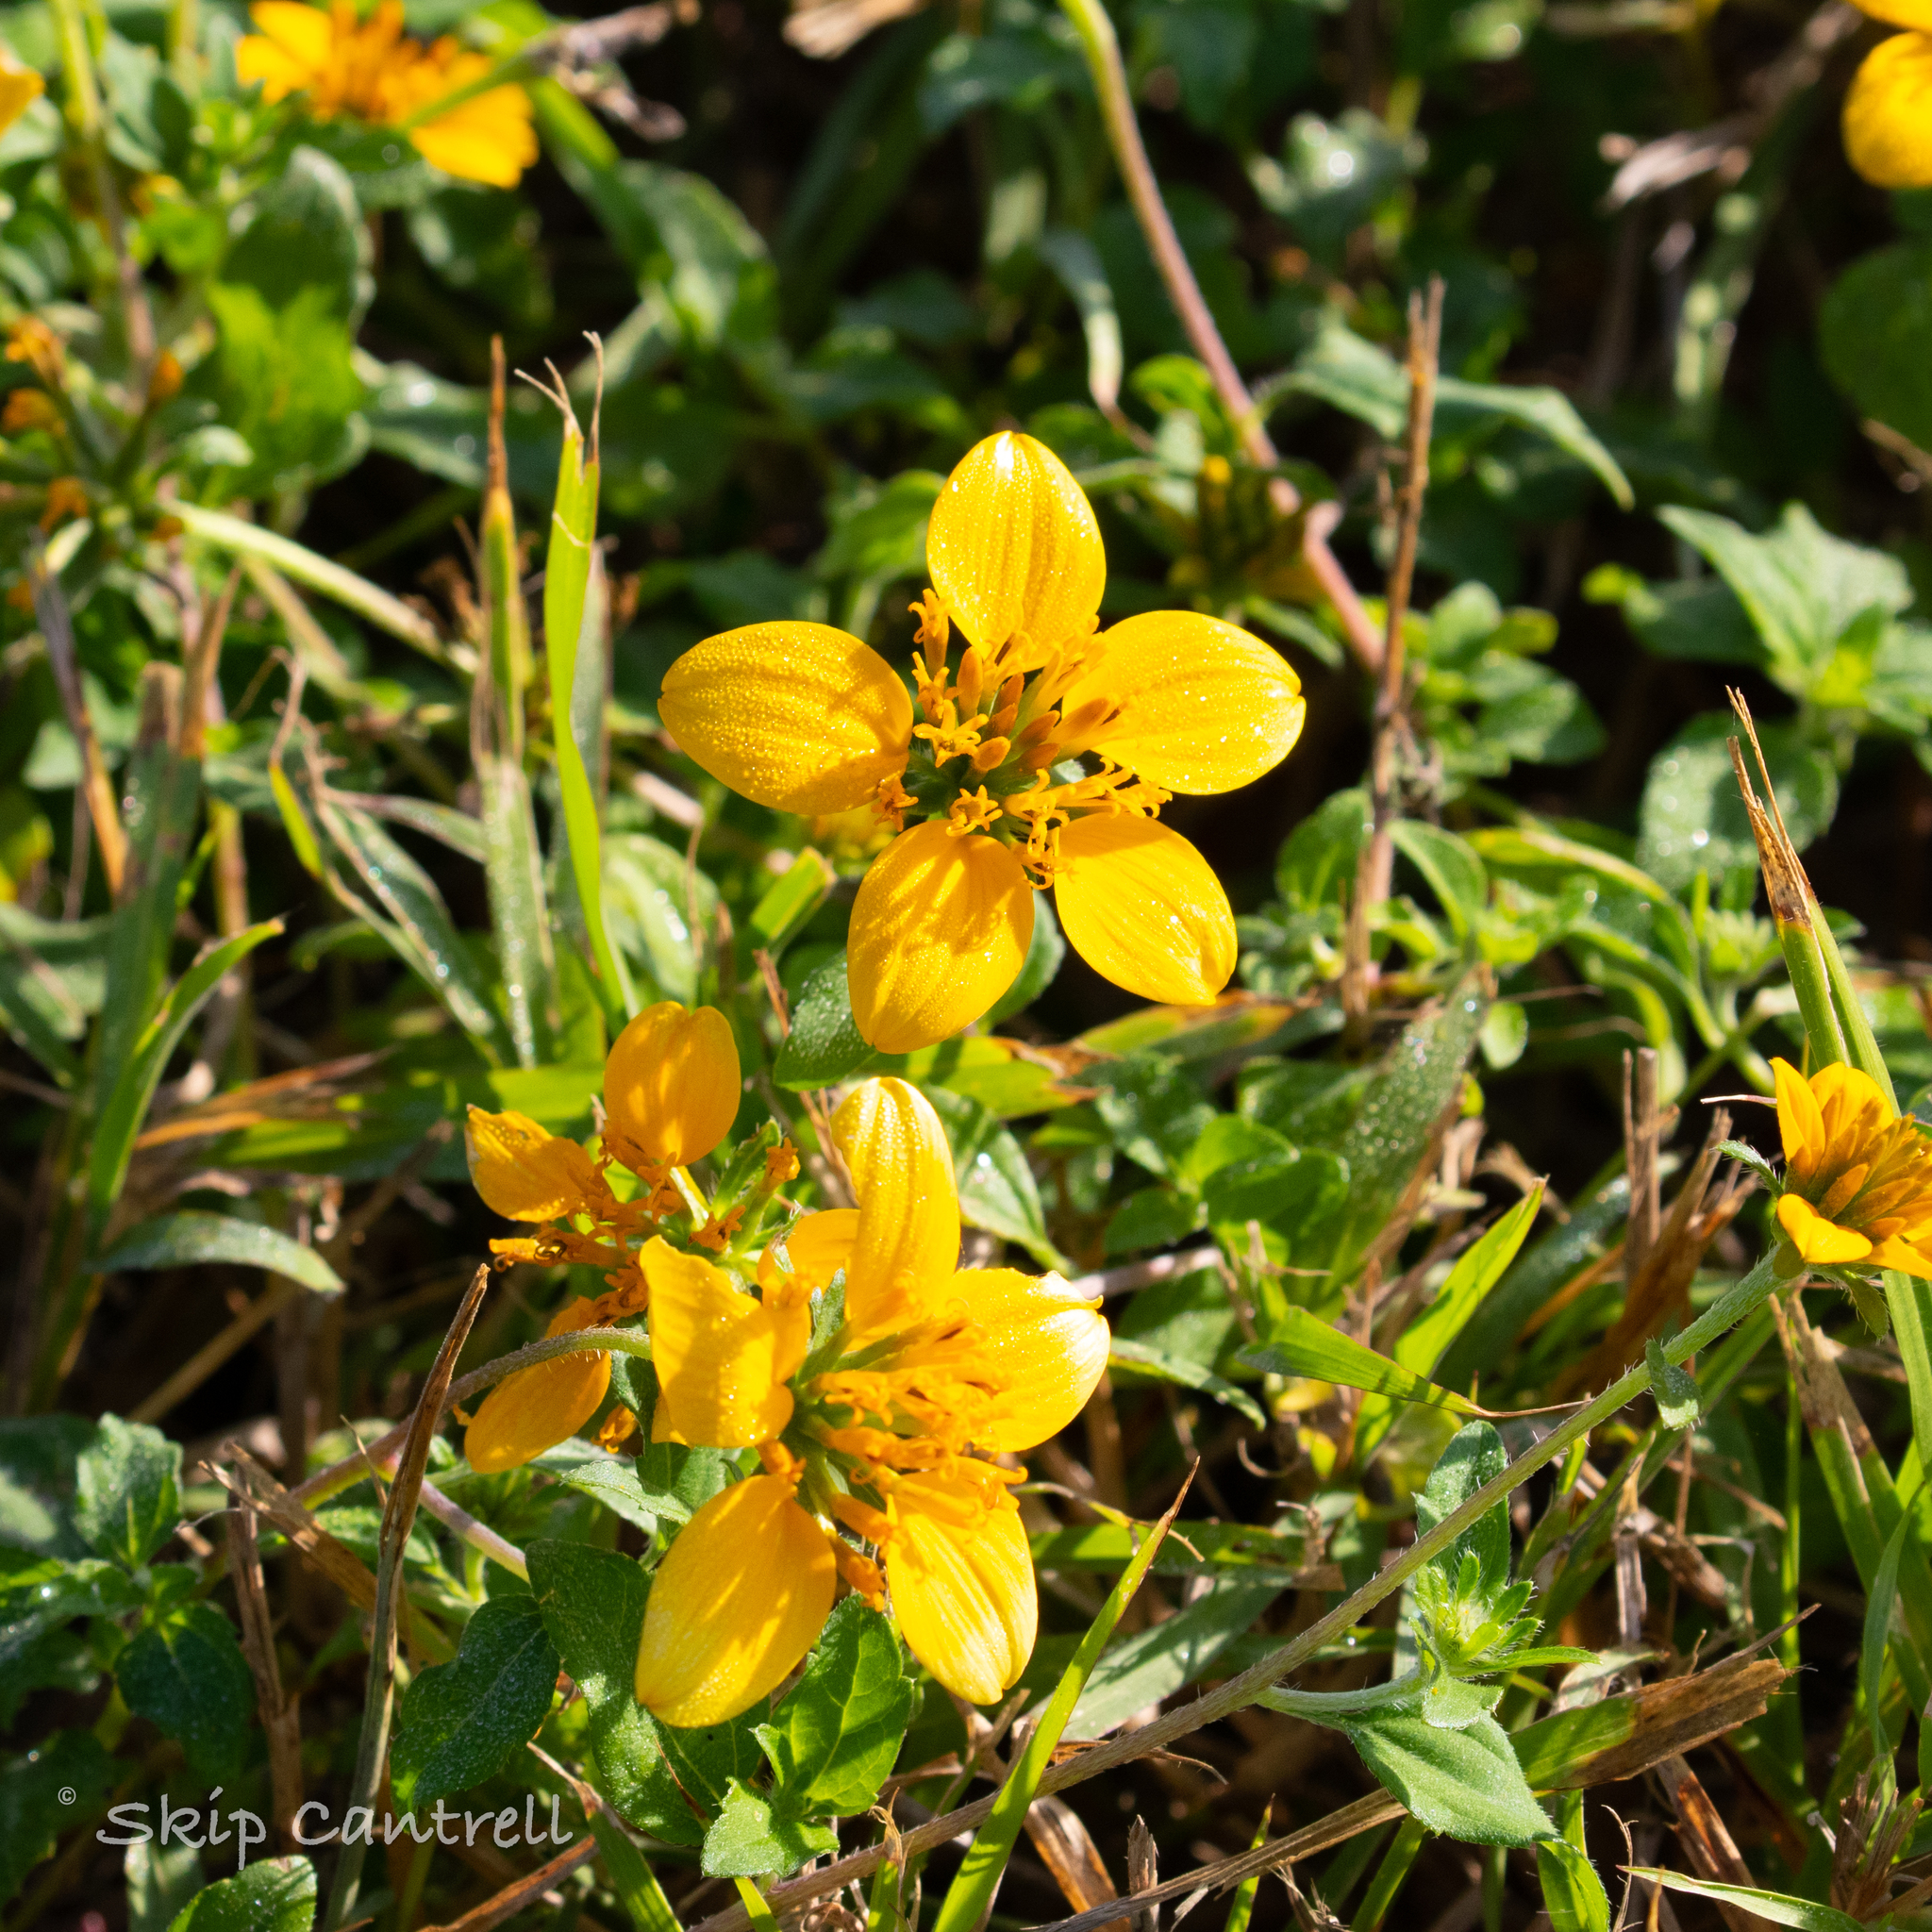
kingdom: Plantae
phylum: Tracheophyta
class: Magnoliopsida
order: Asterales
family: Asteraceae
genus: Sclerocarpus
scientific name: Sclerocarpus uniserialis
